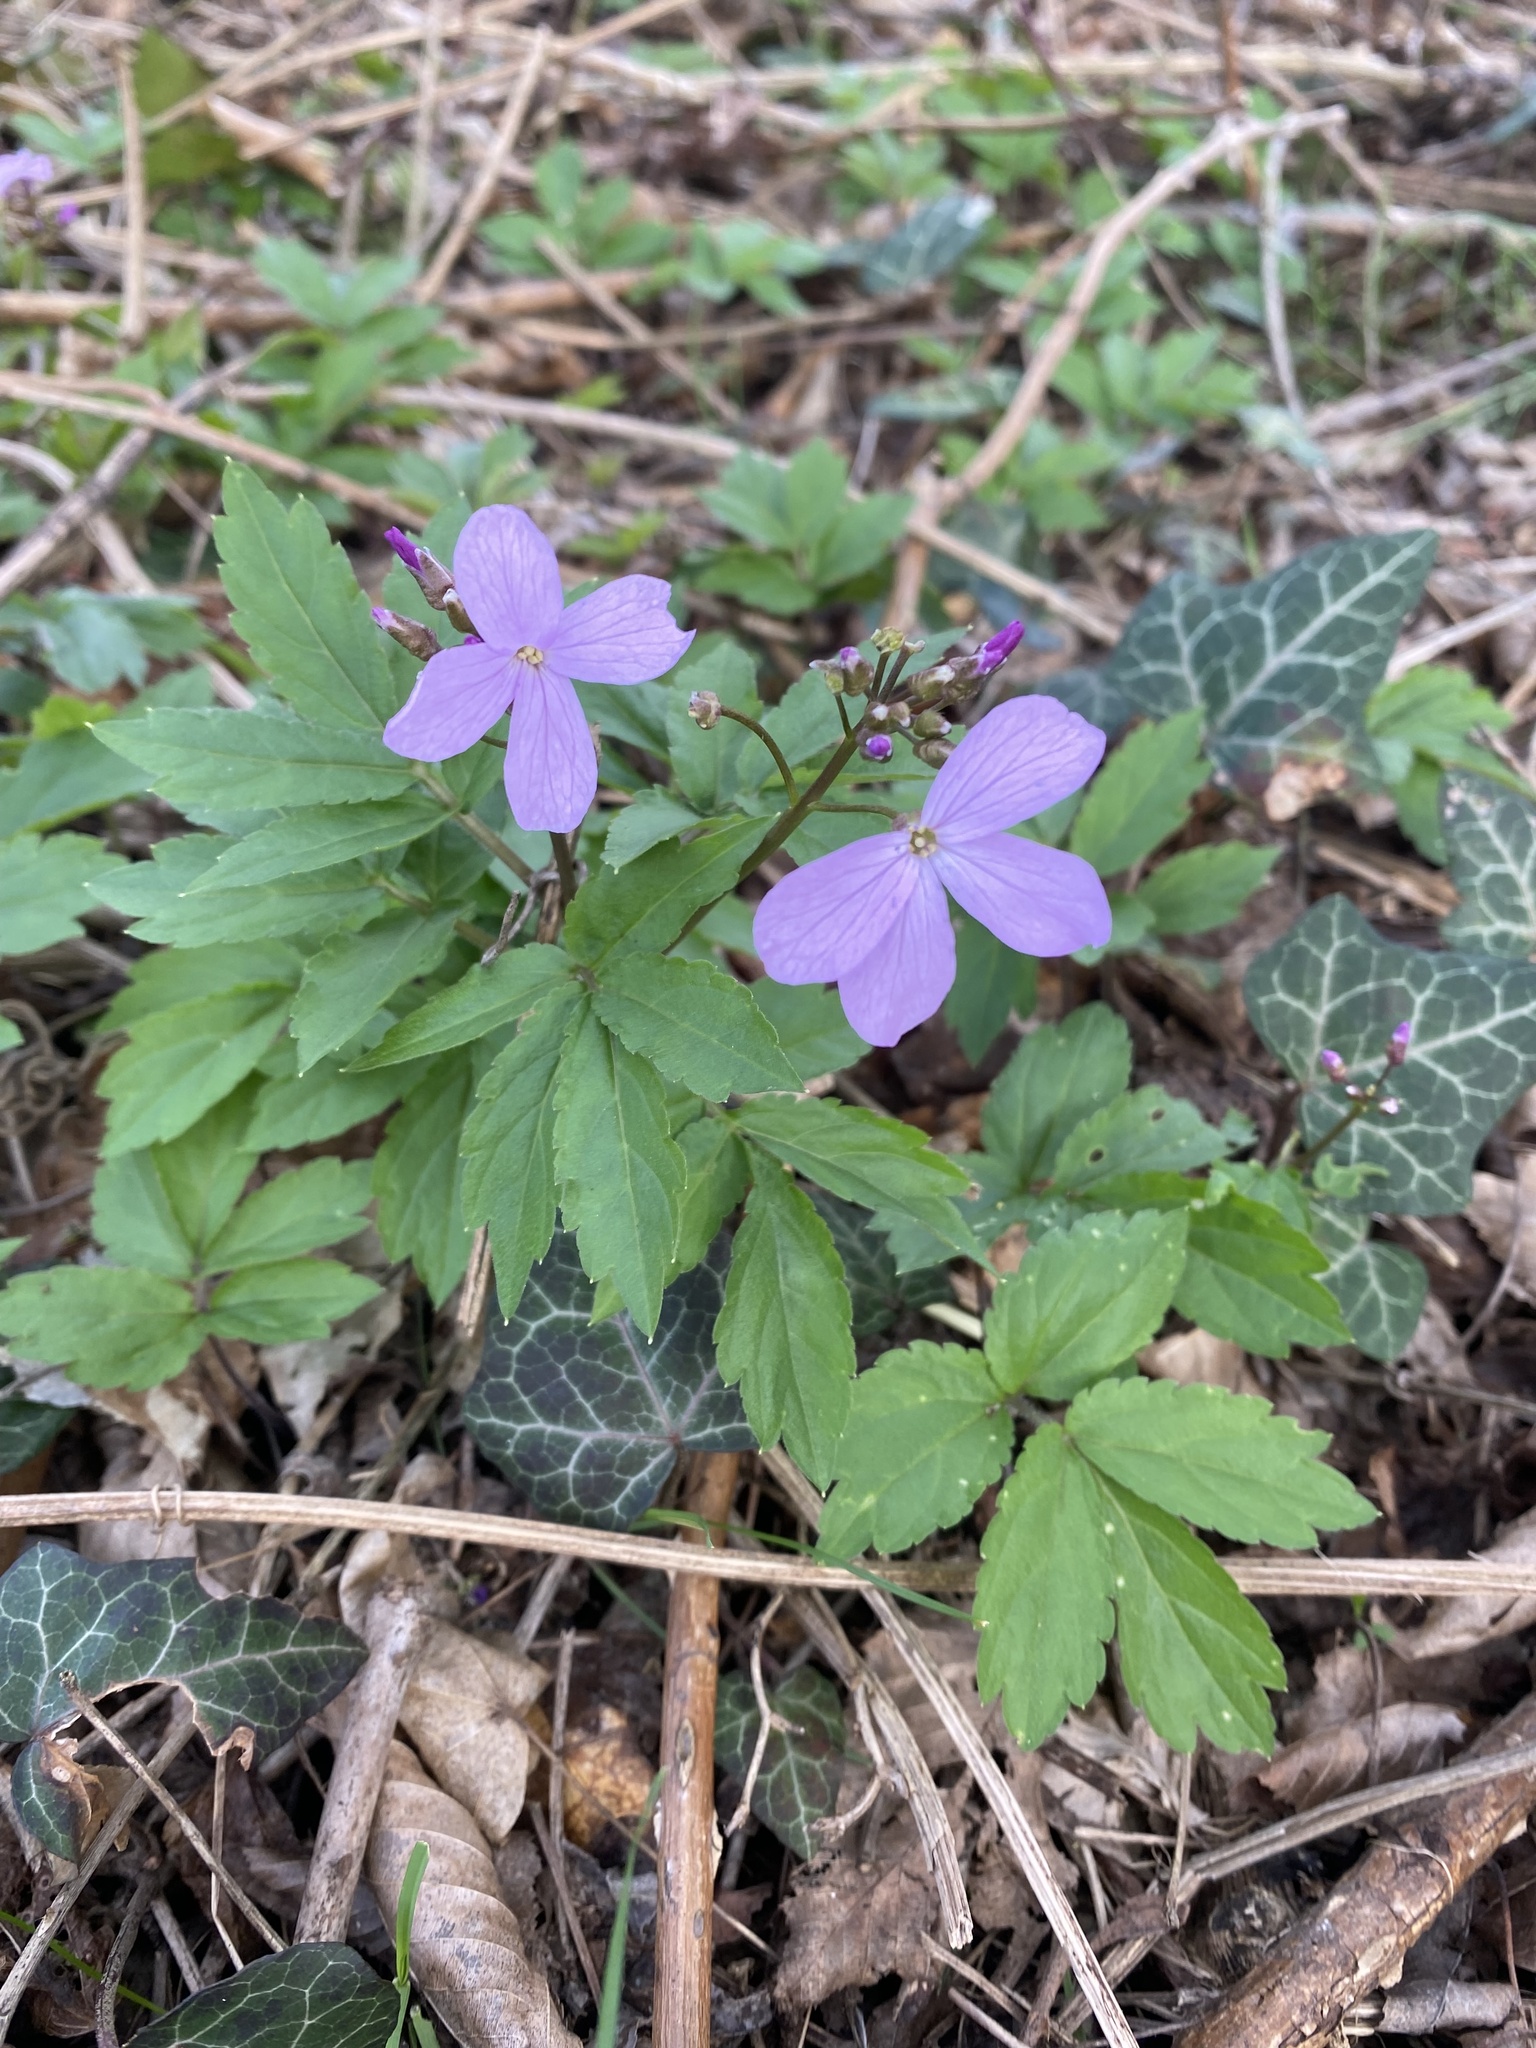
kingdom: Plantae
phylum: Tracheophyta
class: Magnoliopsida
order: Brassicales
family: Brassicaceae
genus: Cardamine
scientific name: Cardamine quinquefolia
